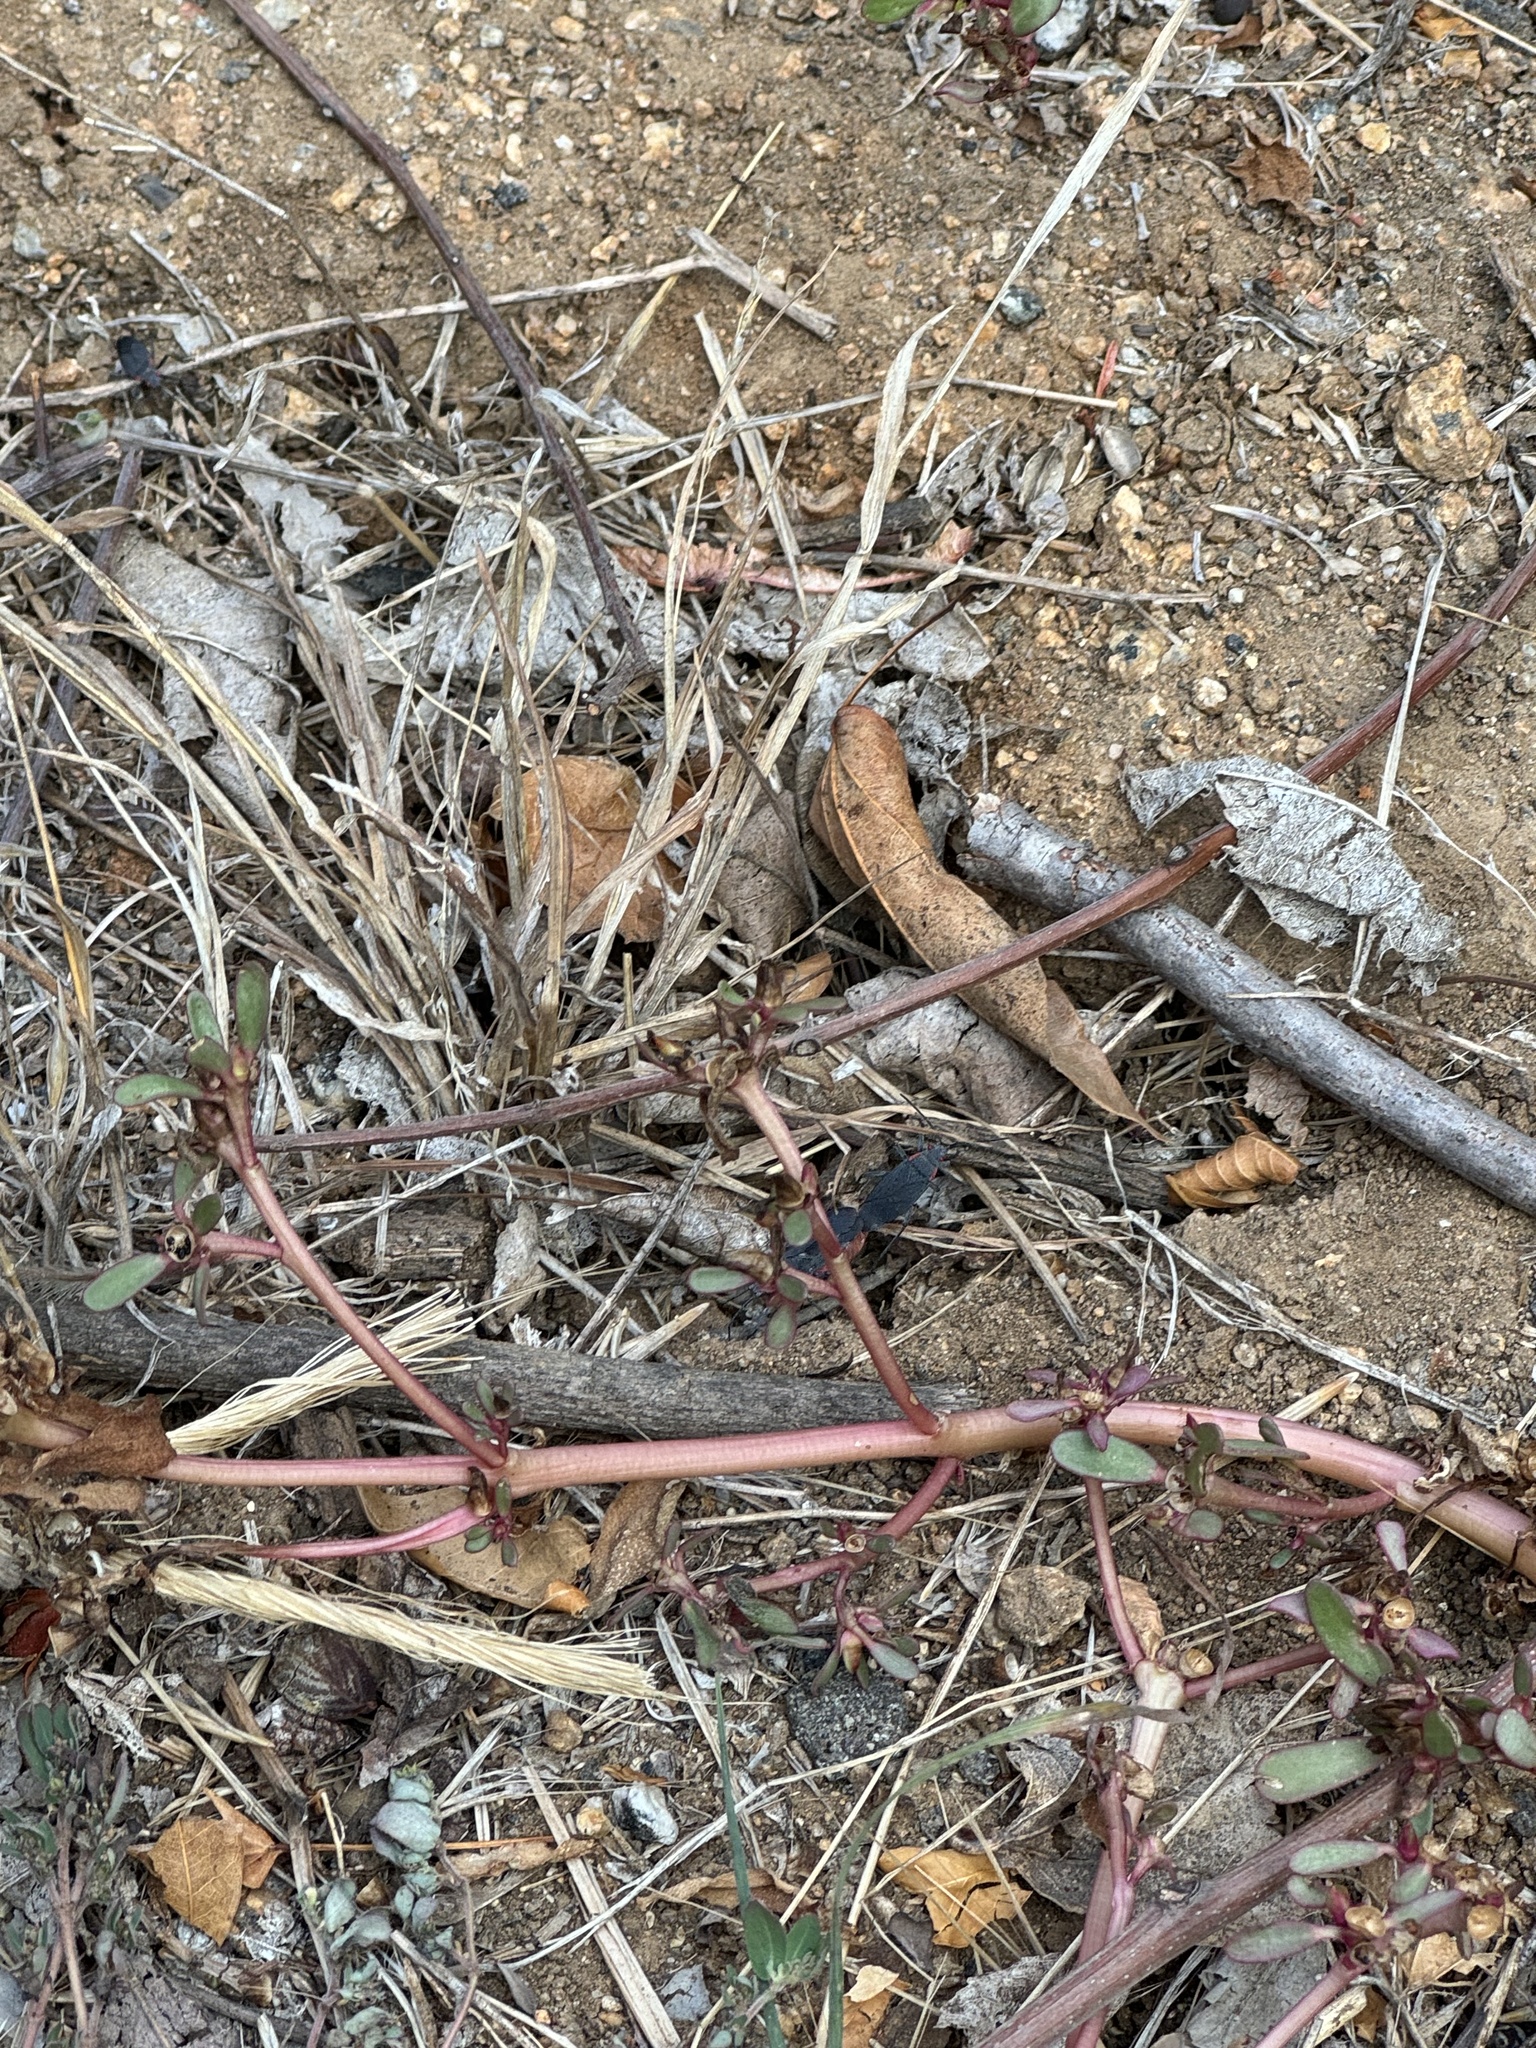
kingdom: Animalia
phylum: Arthropoda
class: Insecta
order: Hemiptera
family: Rhopalidae
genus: Jadera
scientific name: Jadera haematoloma
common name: Red-shouldered bug
